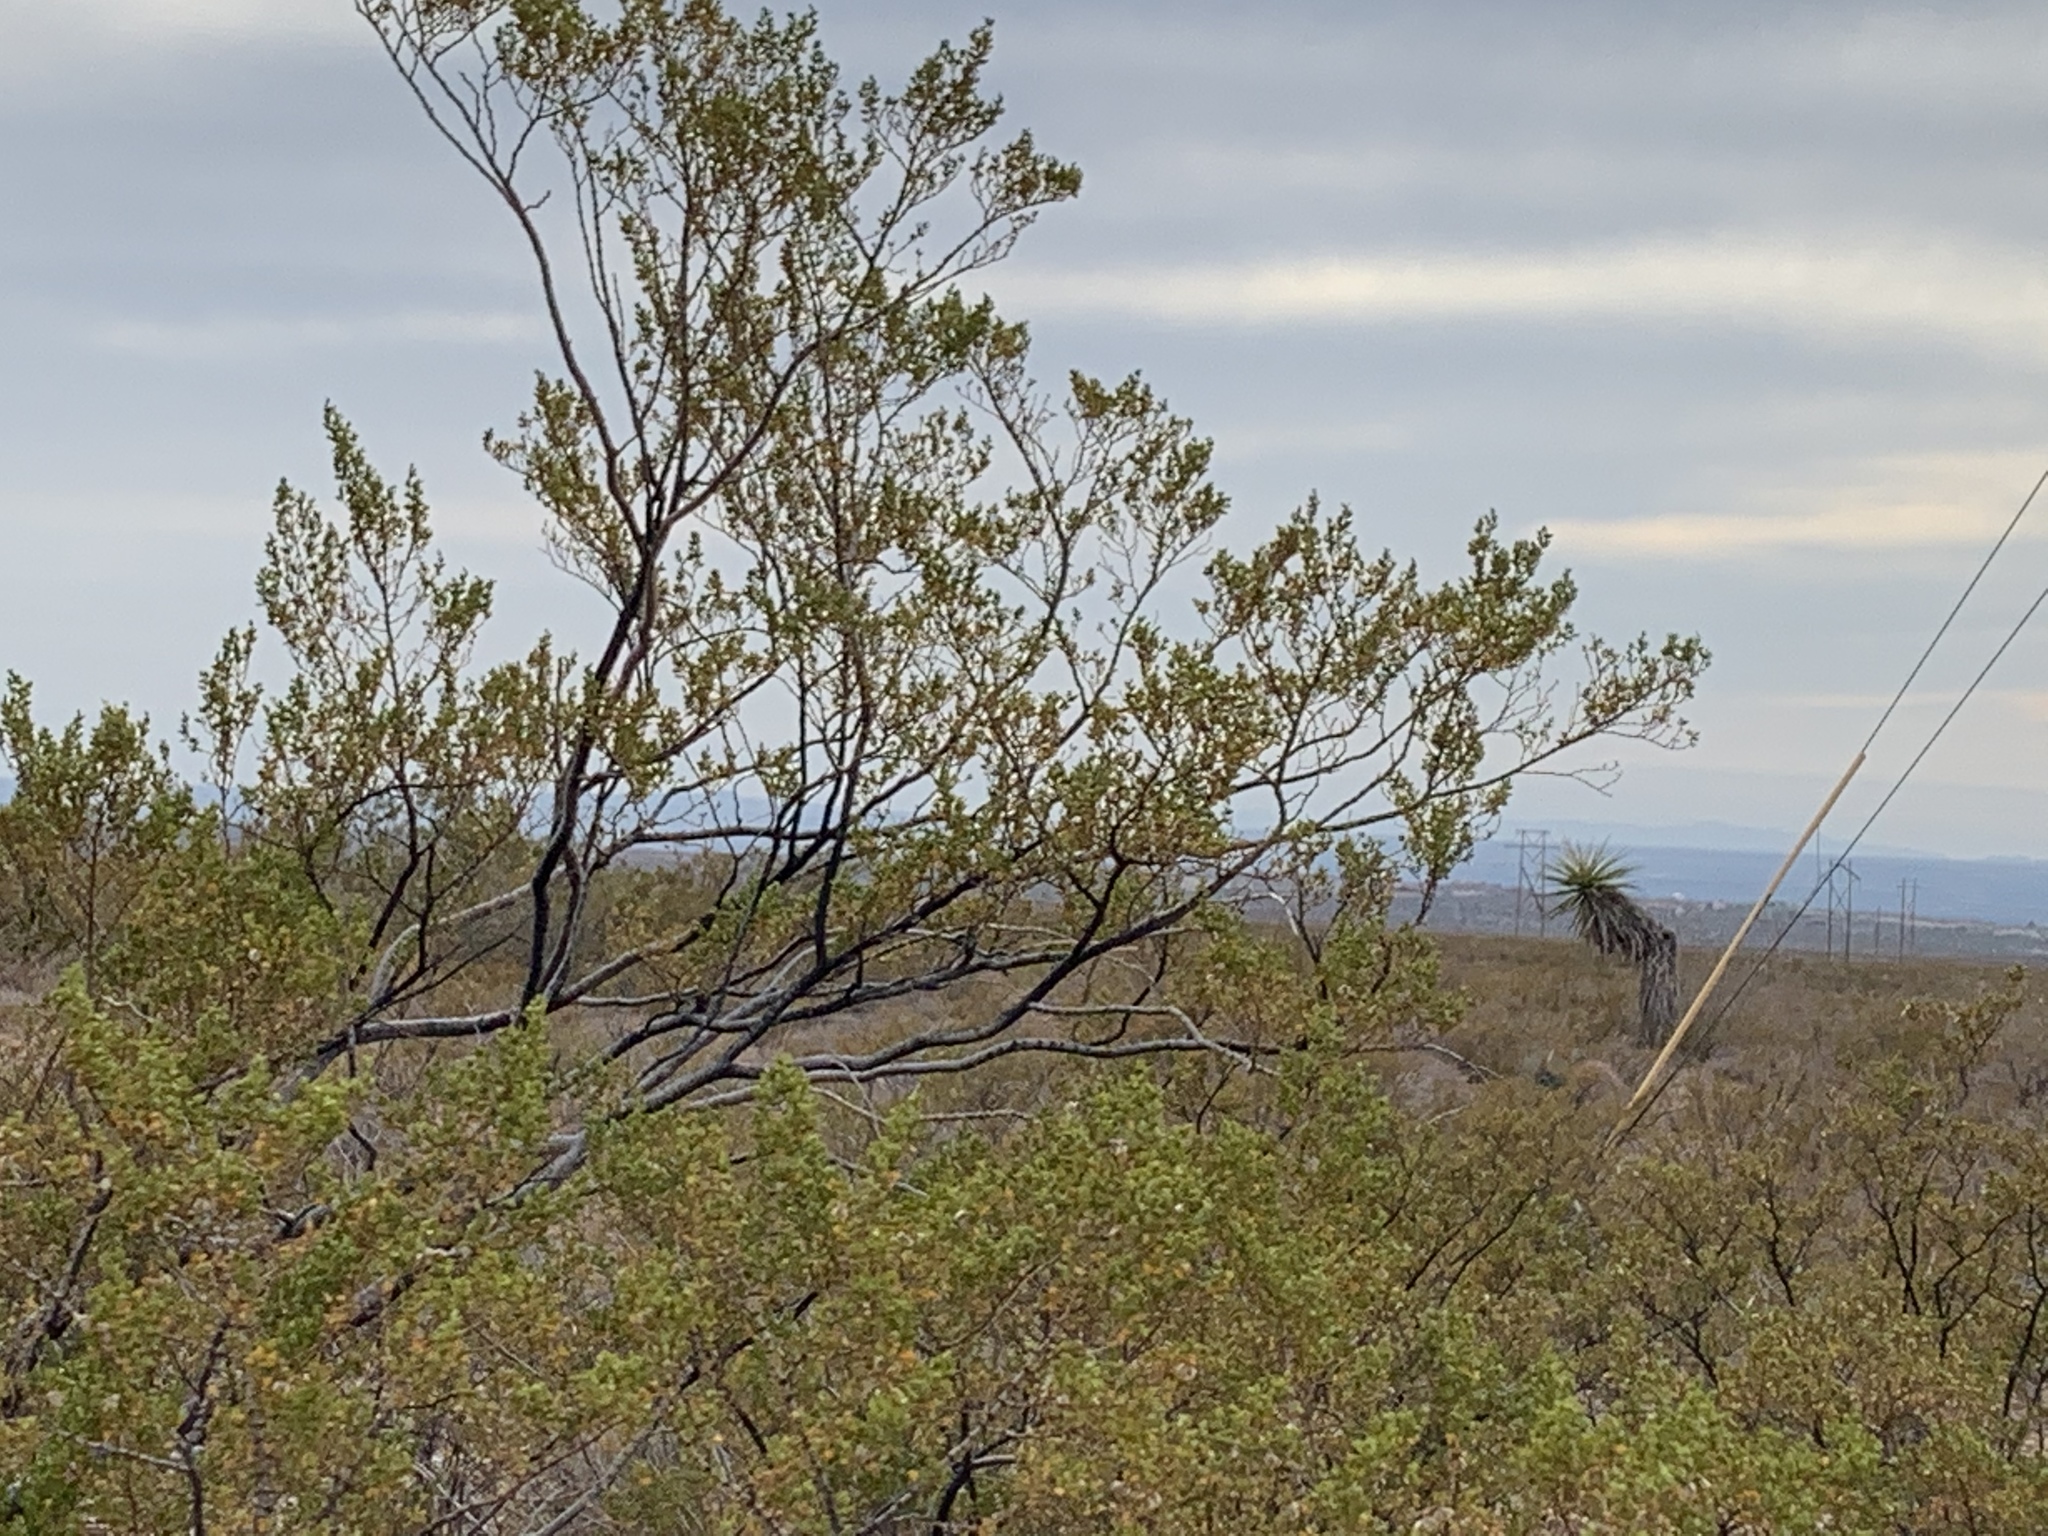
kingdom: Plantae
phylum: Tracheophyta
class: Magnoliopsida
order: Zygophyllales
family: Zygophyllaceae
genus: Larrea
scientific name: Larrea tridentata
